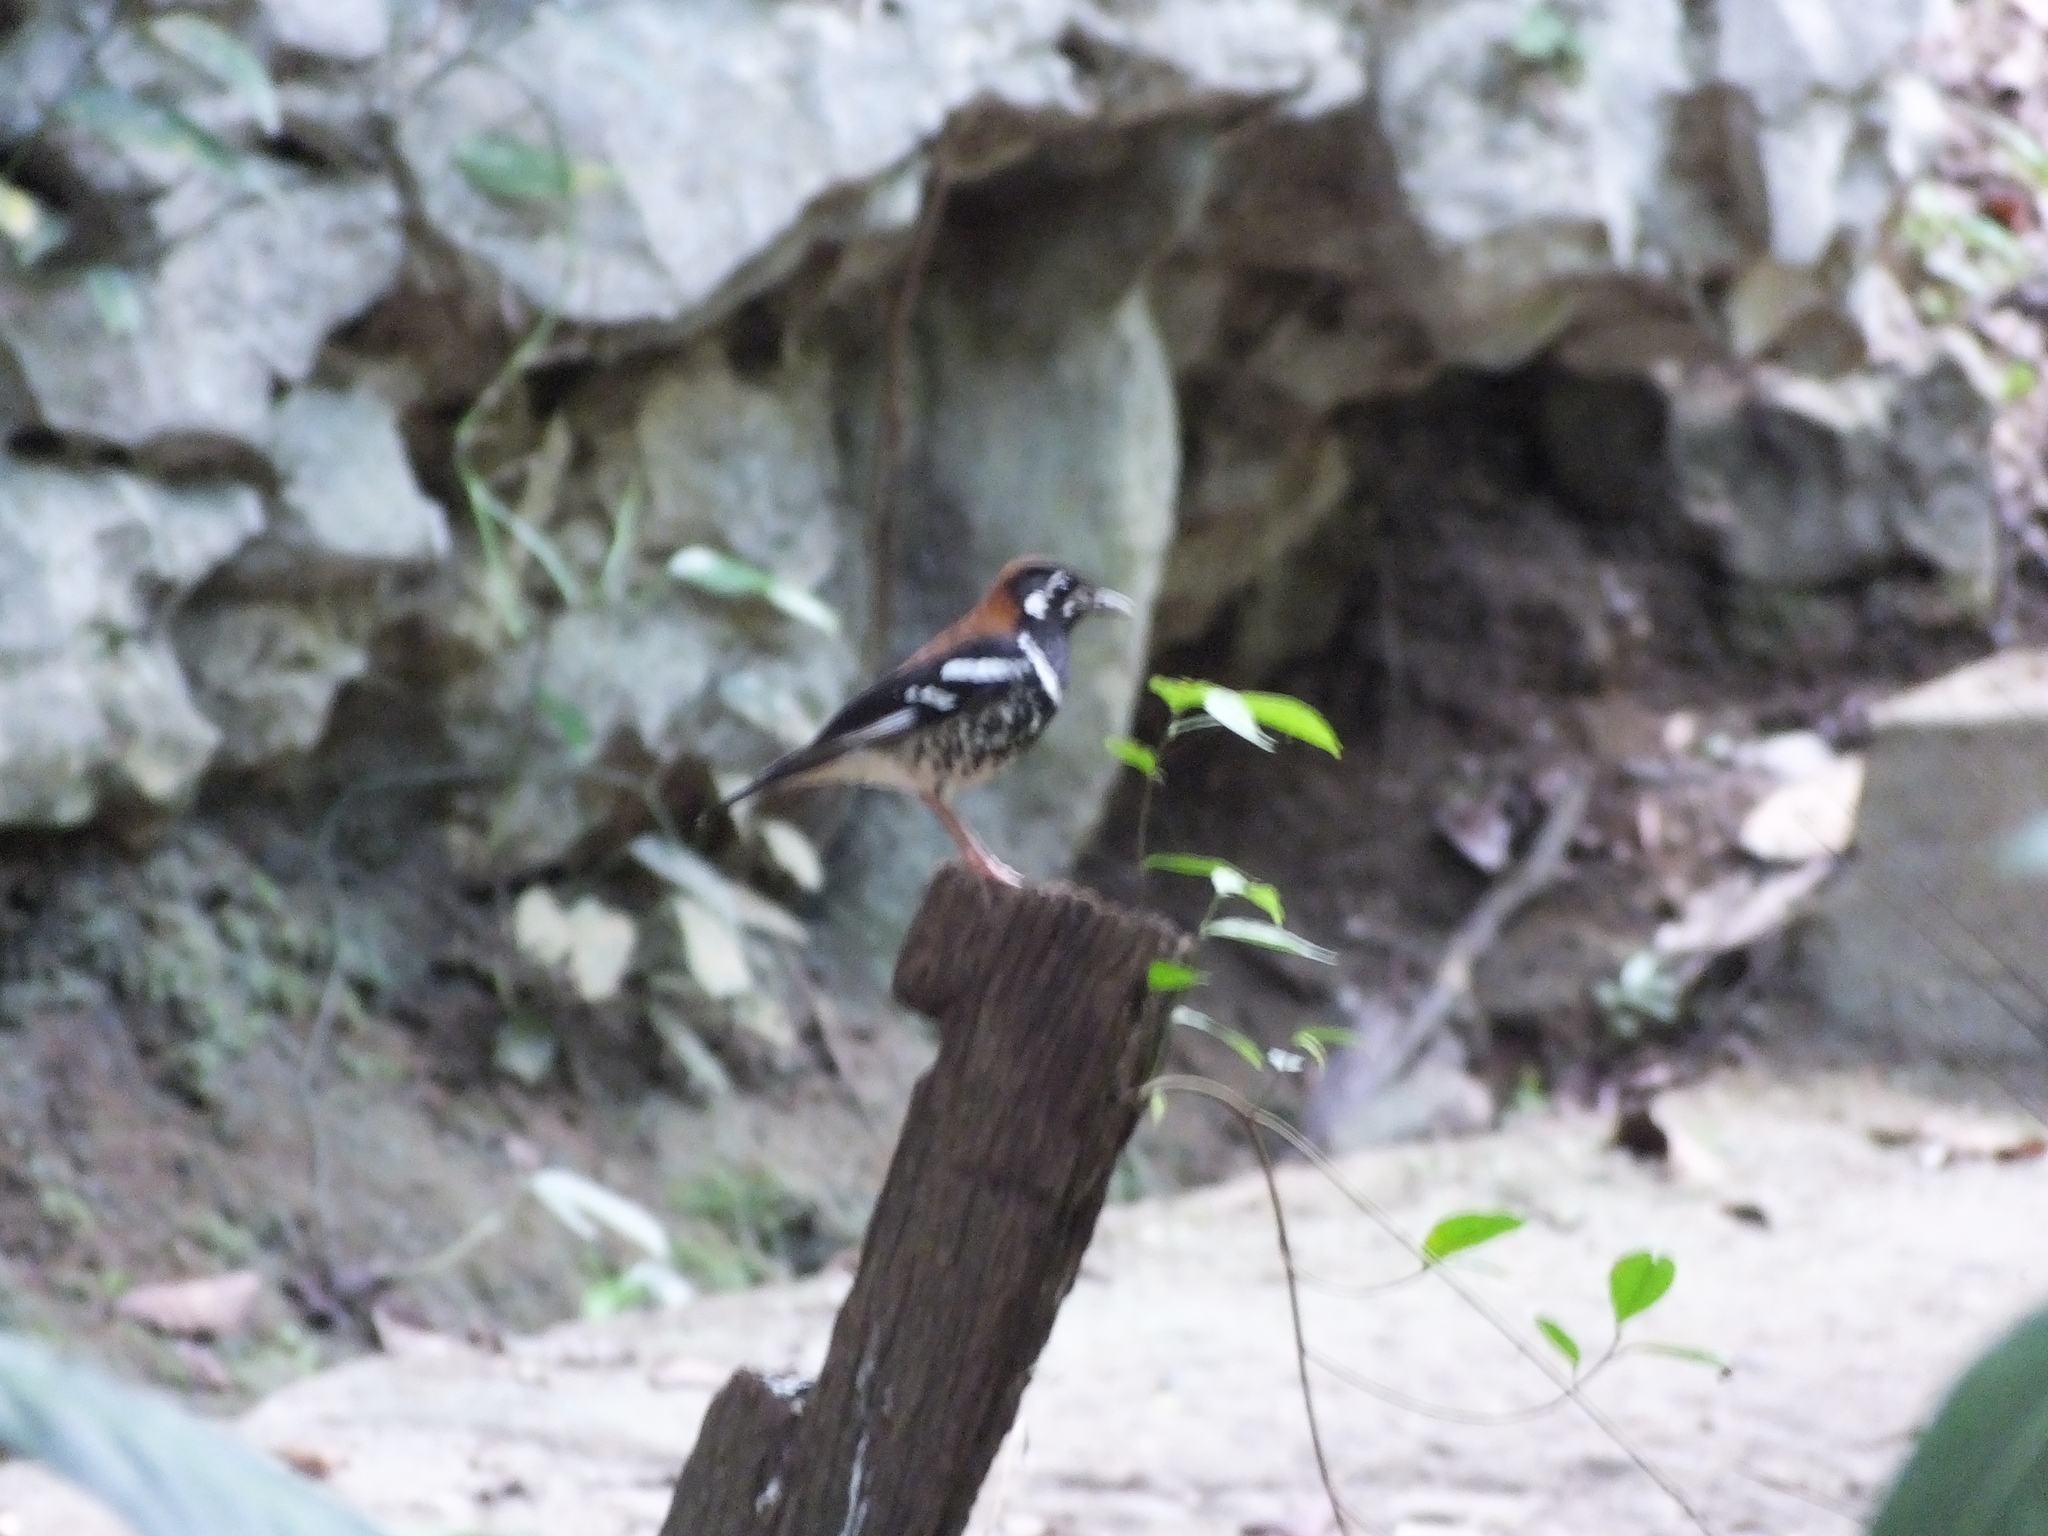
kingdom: Animalia
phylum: Chordata
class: Aves
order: Passeriformes
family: Turdidae
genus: Geokichla
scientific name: Geokichla erythronota
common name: Red-backed thrush
